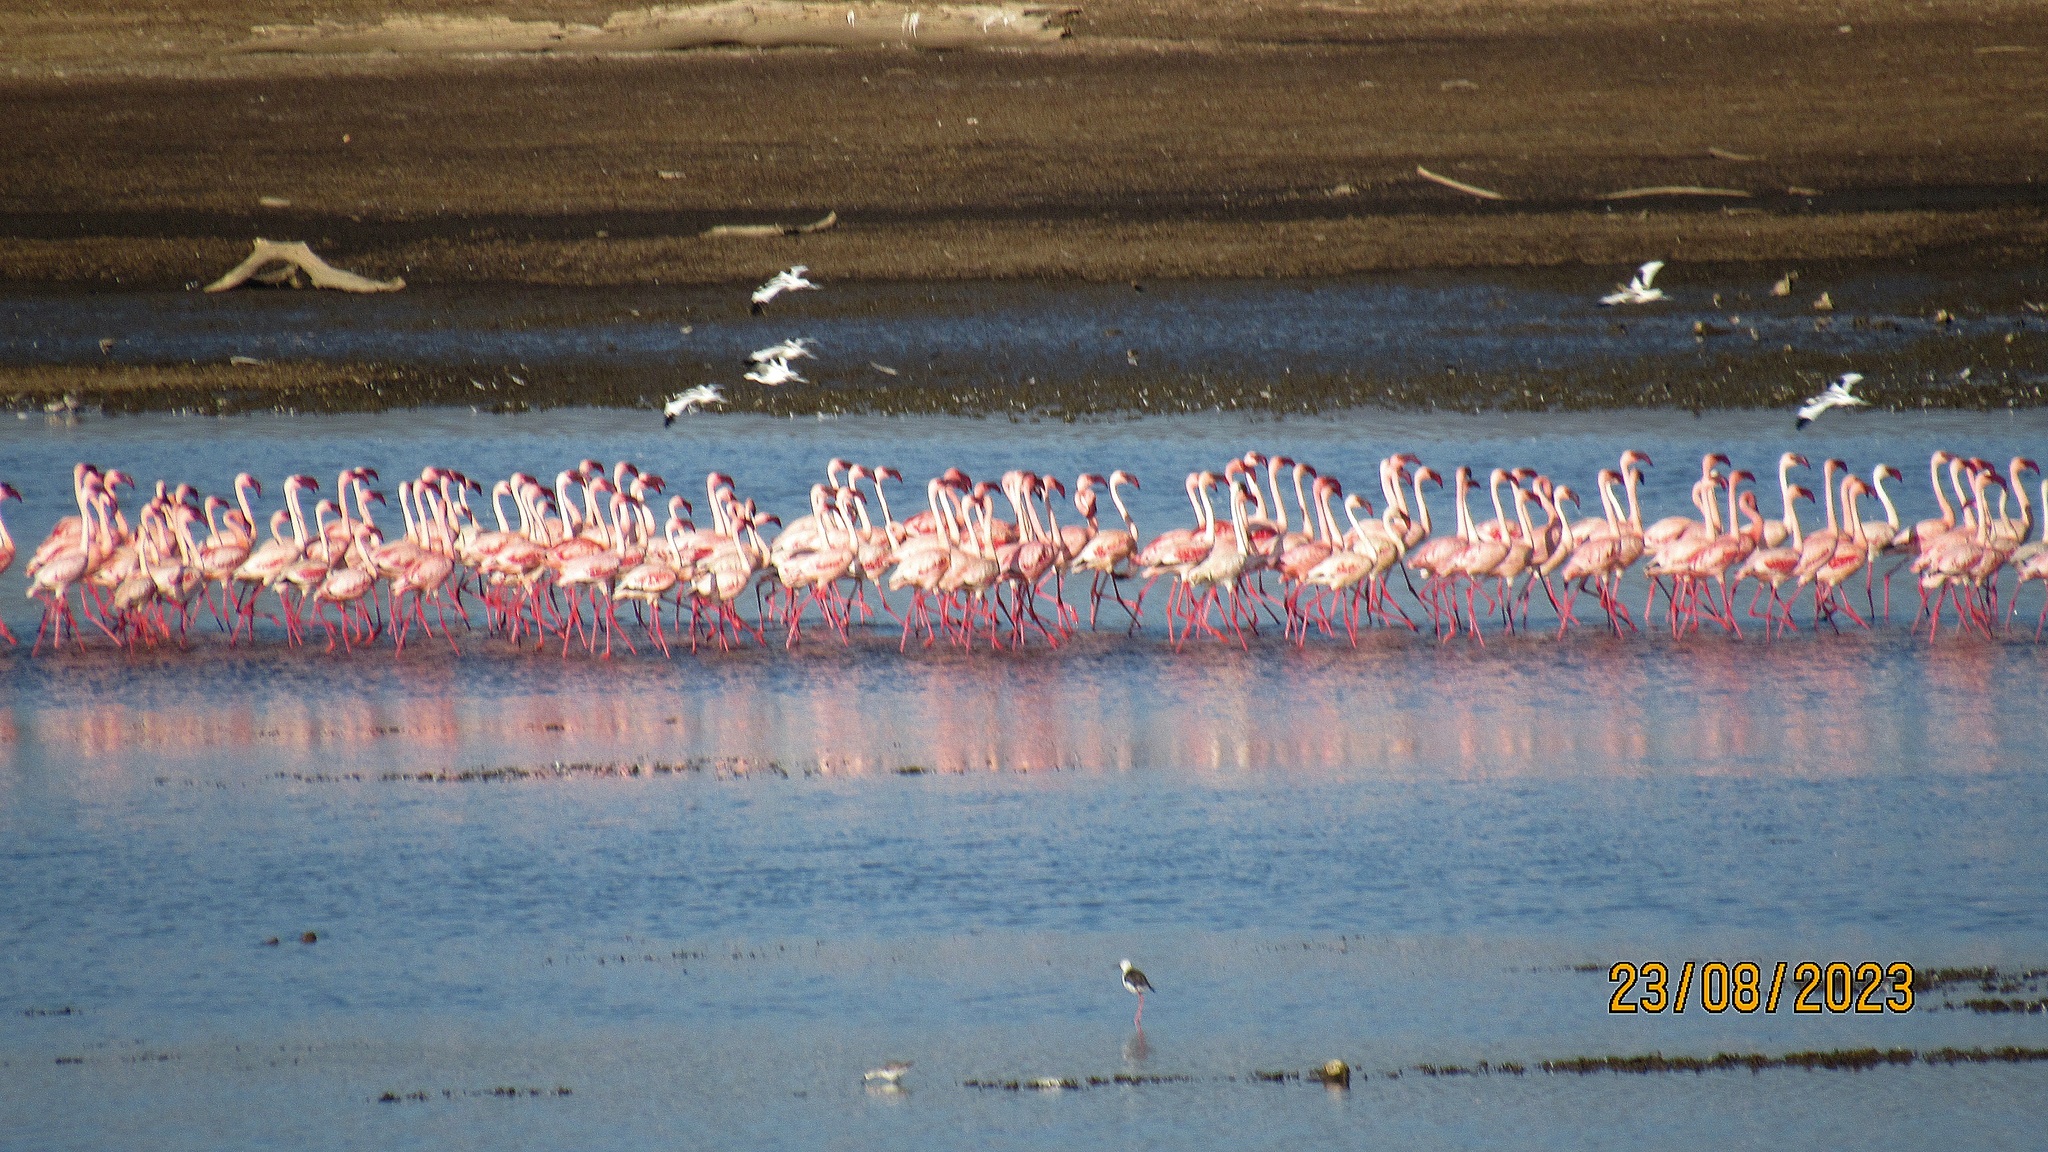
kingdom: Animalia
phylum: Chordata
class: Aves
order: Phoenicopteriformes
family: Phoenicopteridae
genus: Phoeniconaias
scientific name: Phoeniconaias minor
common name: Lesser flamingo
